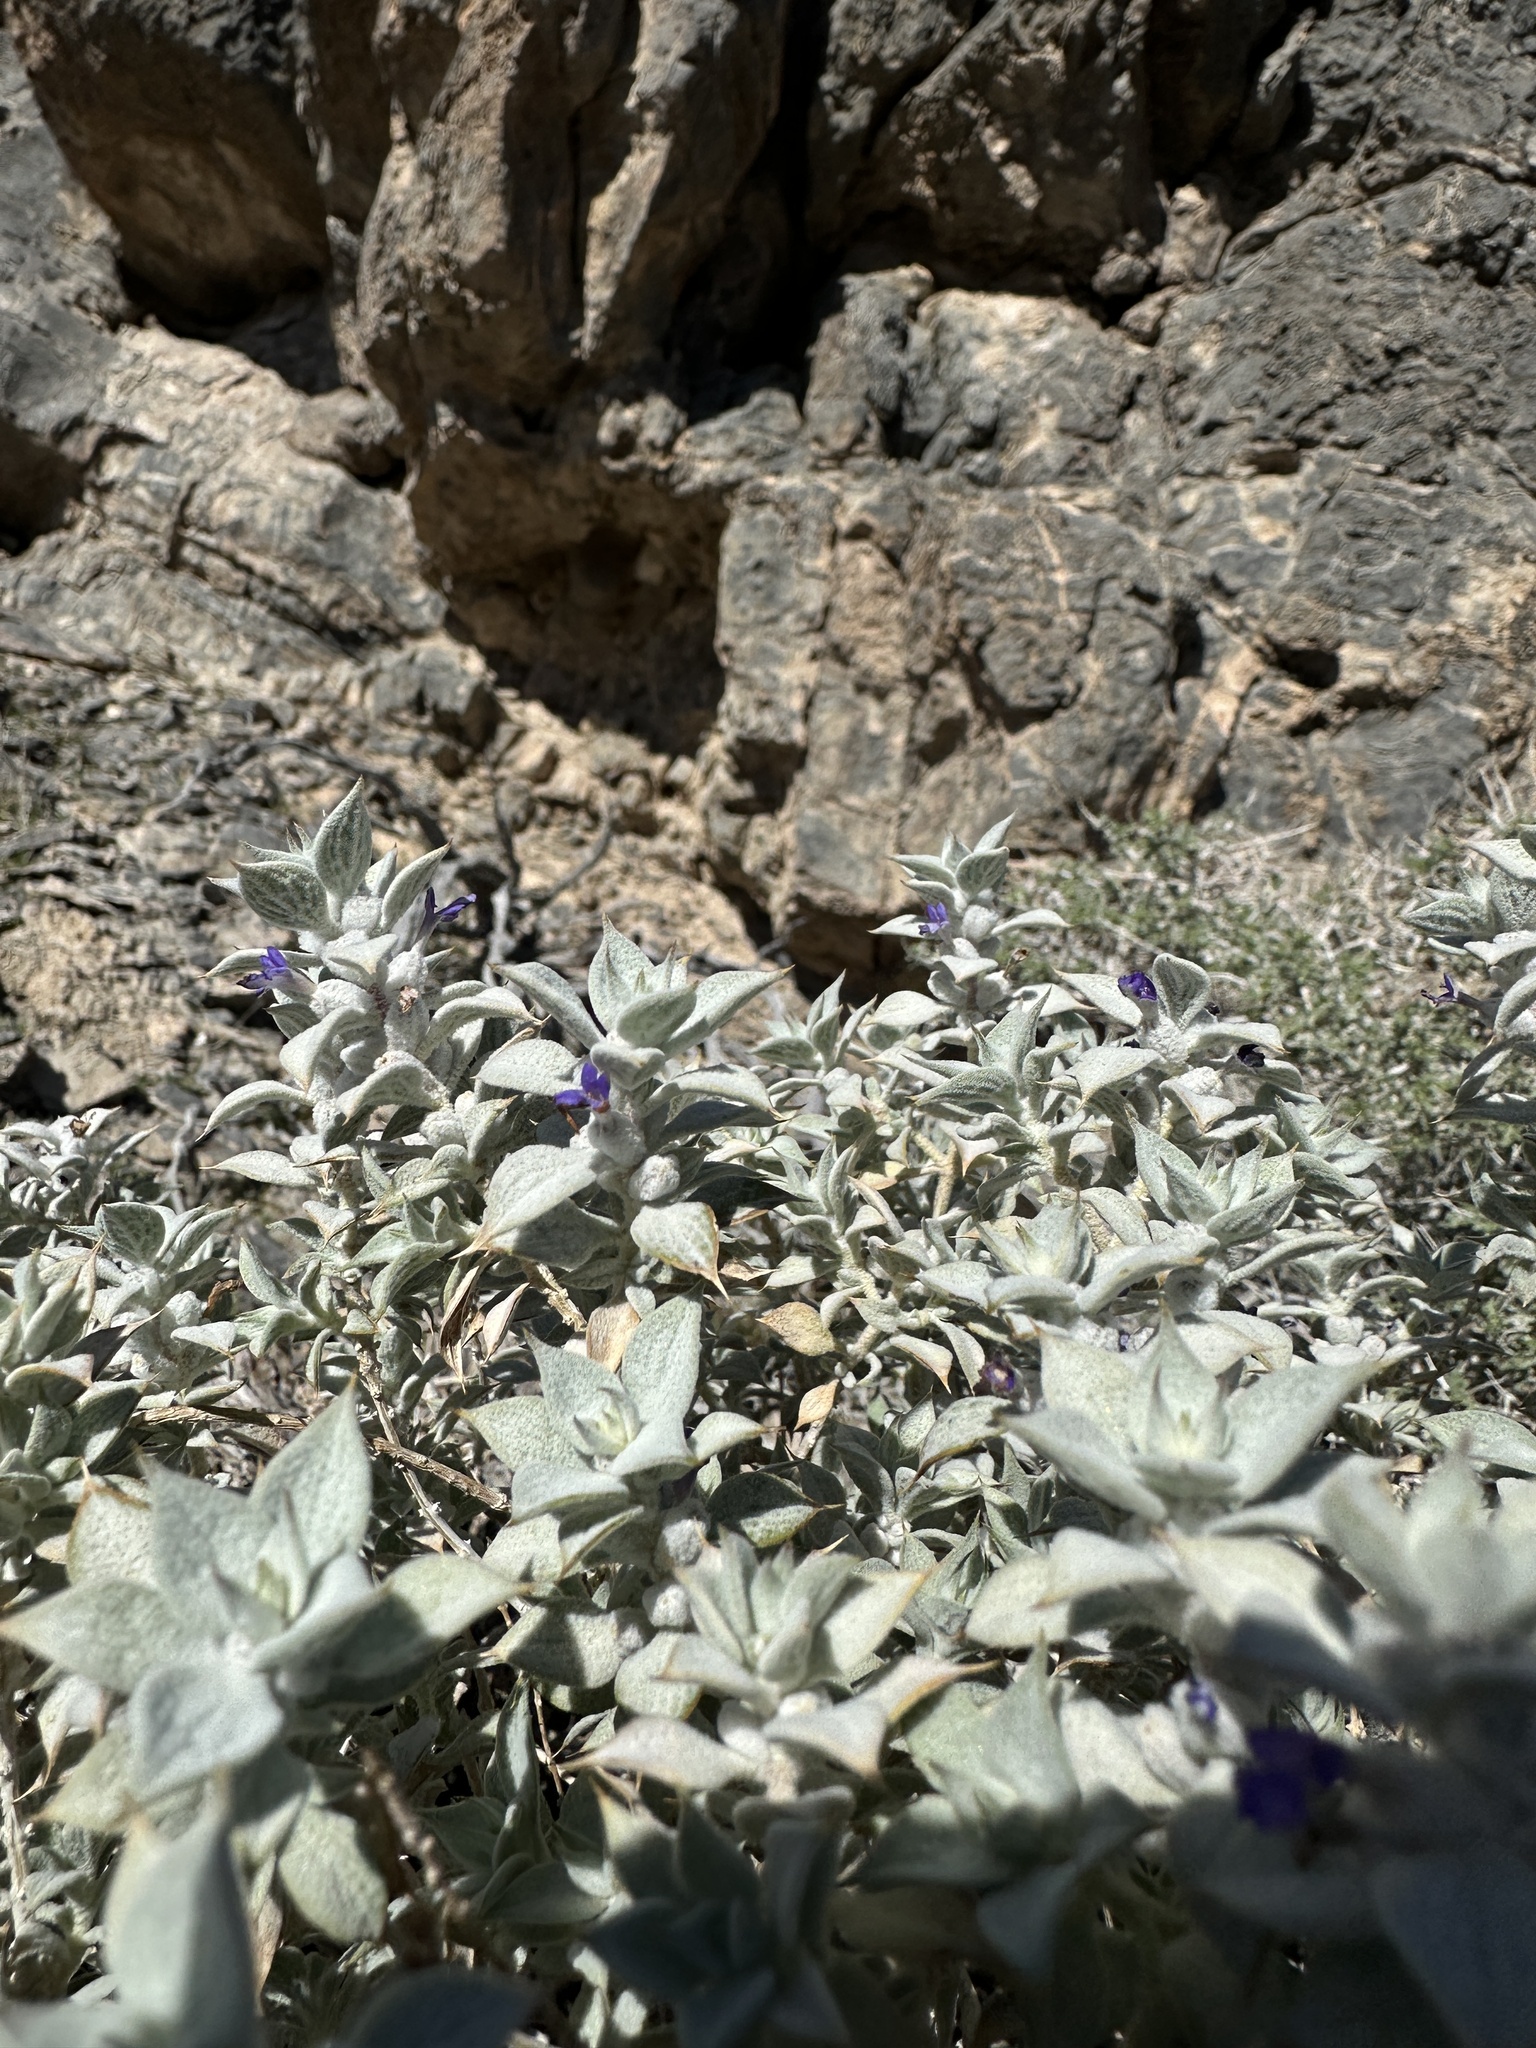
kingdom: Plantae
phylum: Tracheophyta
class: Magnoliopsida
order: Lamiales
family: Lamiaceae
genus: Salvia
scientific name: Salvia funerea
